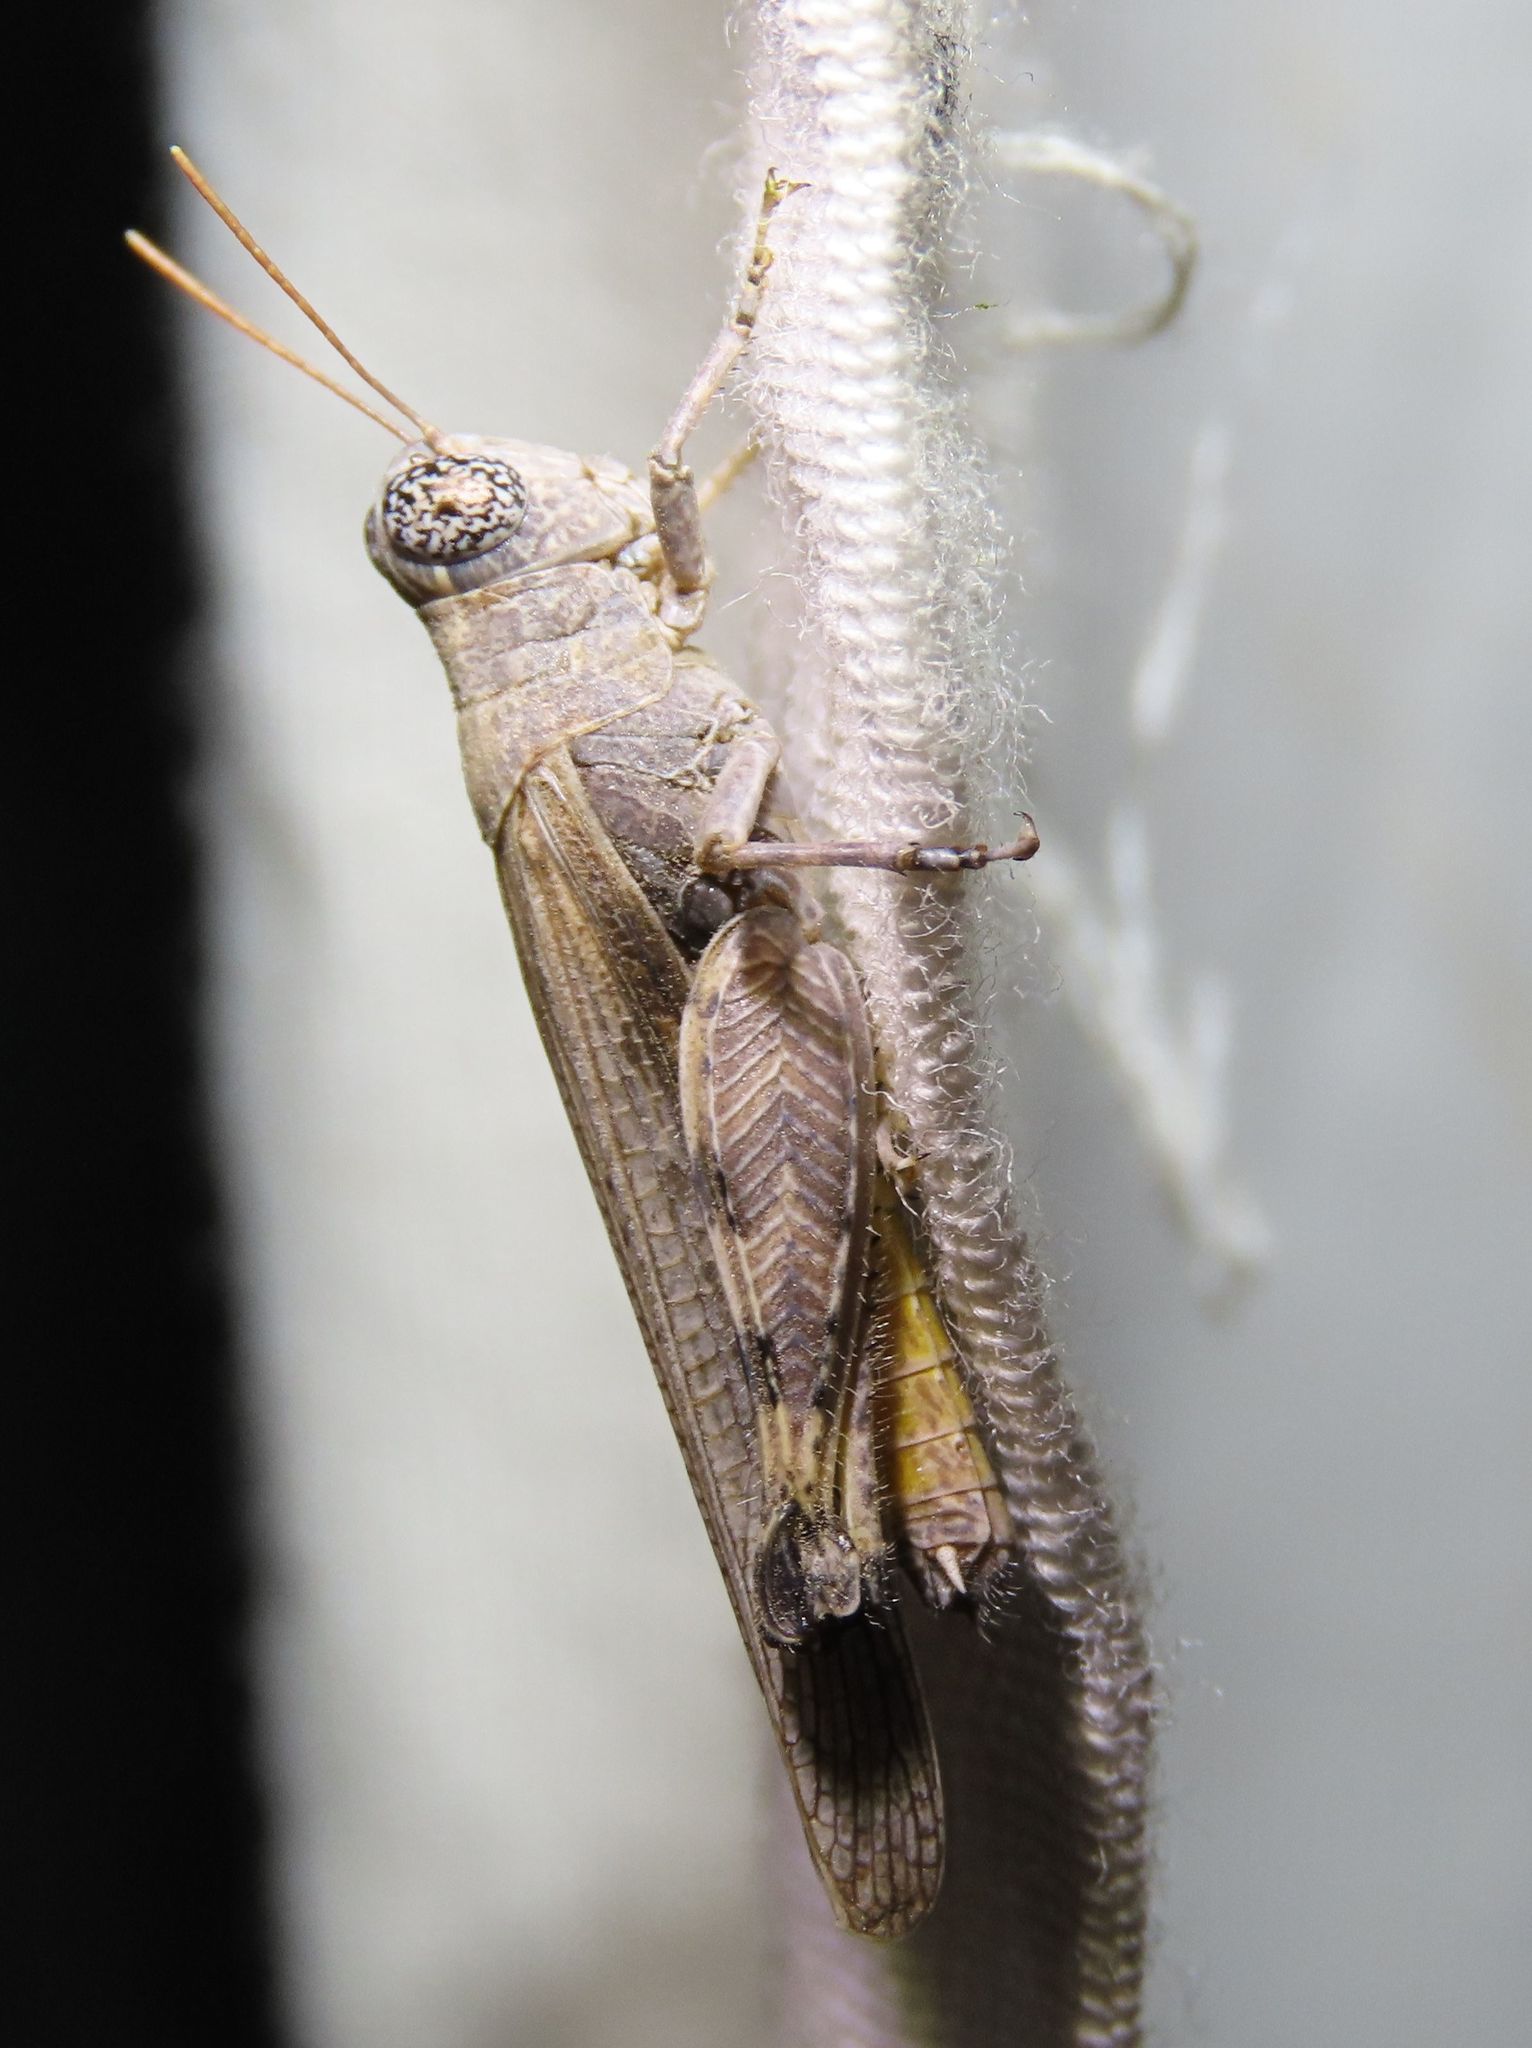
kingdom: Animalia
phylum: Arthropoda
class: Insecta
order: Orthoptera
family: Acrididae
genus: Ligurotettix
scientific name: Ligurotettix coquilletti
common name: Desert clicker grasshopper
